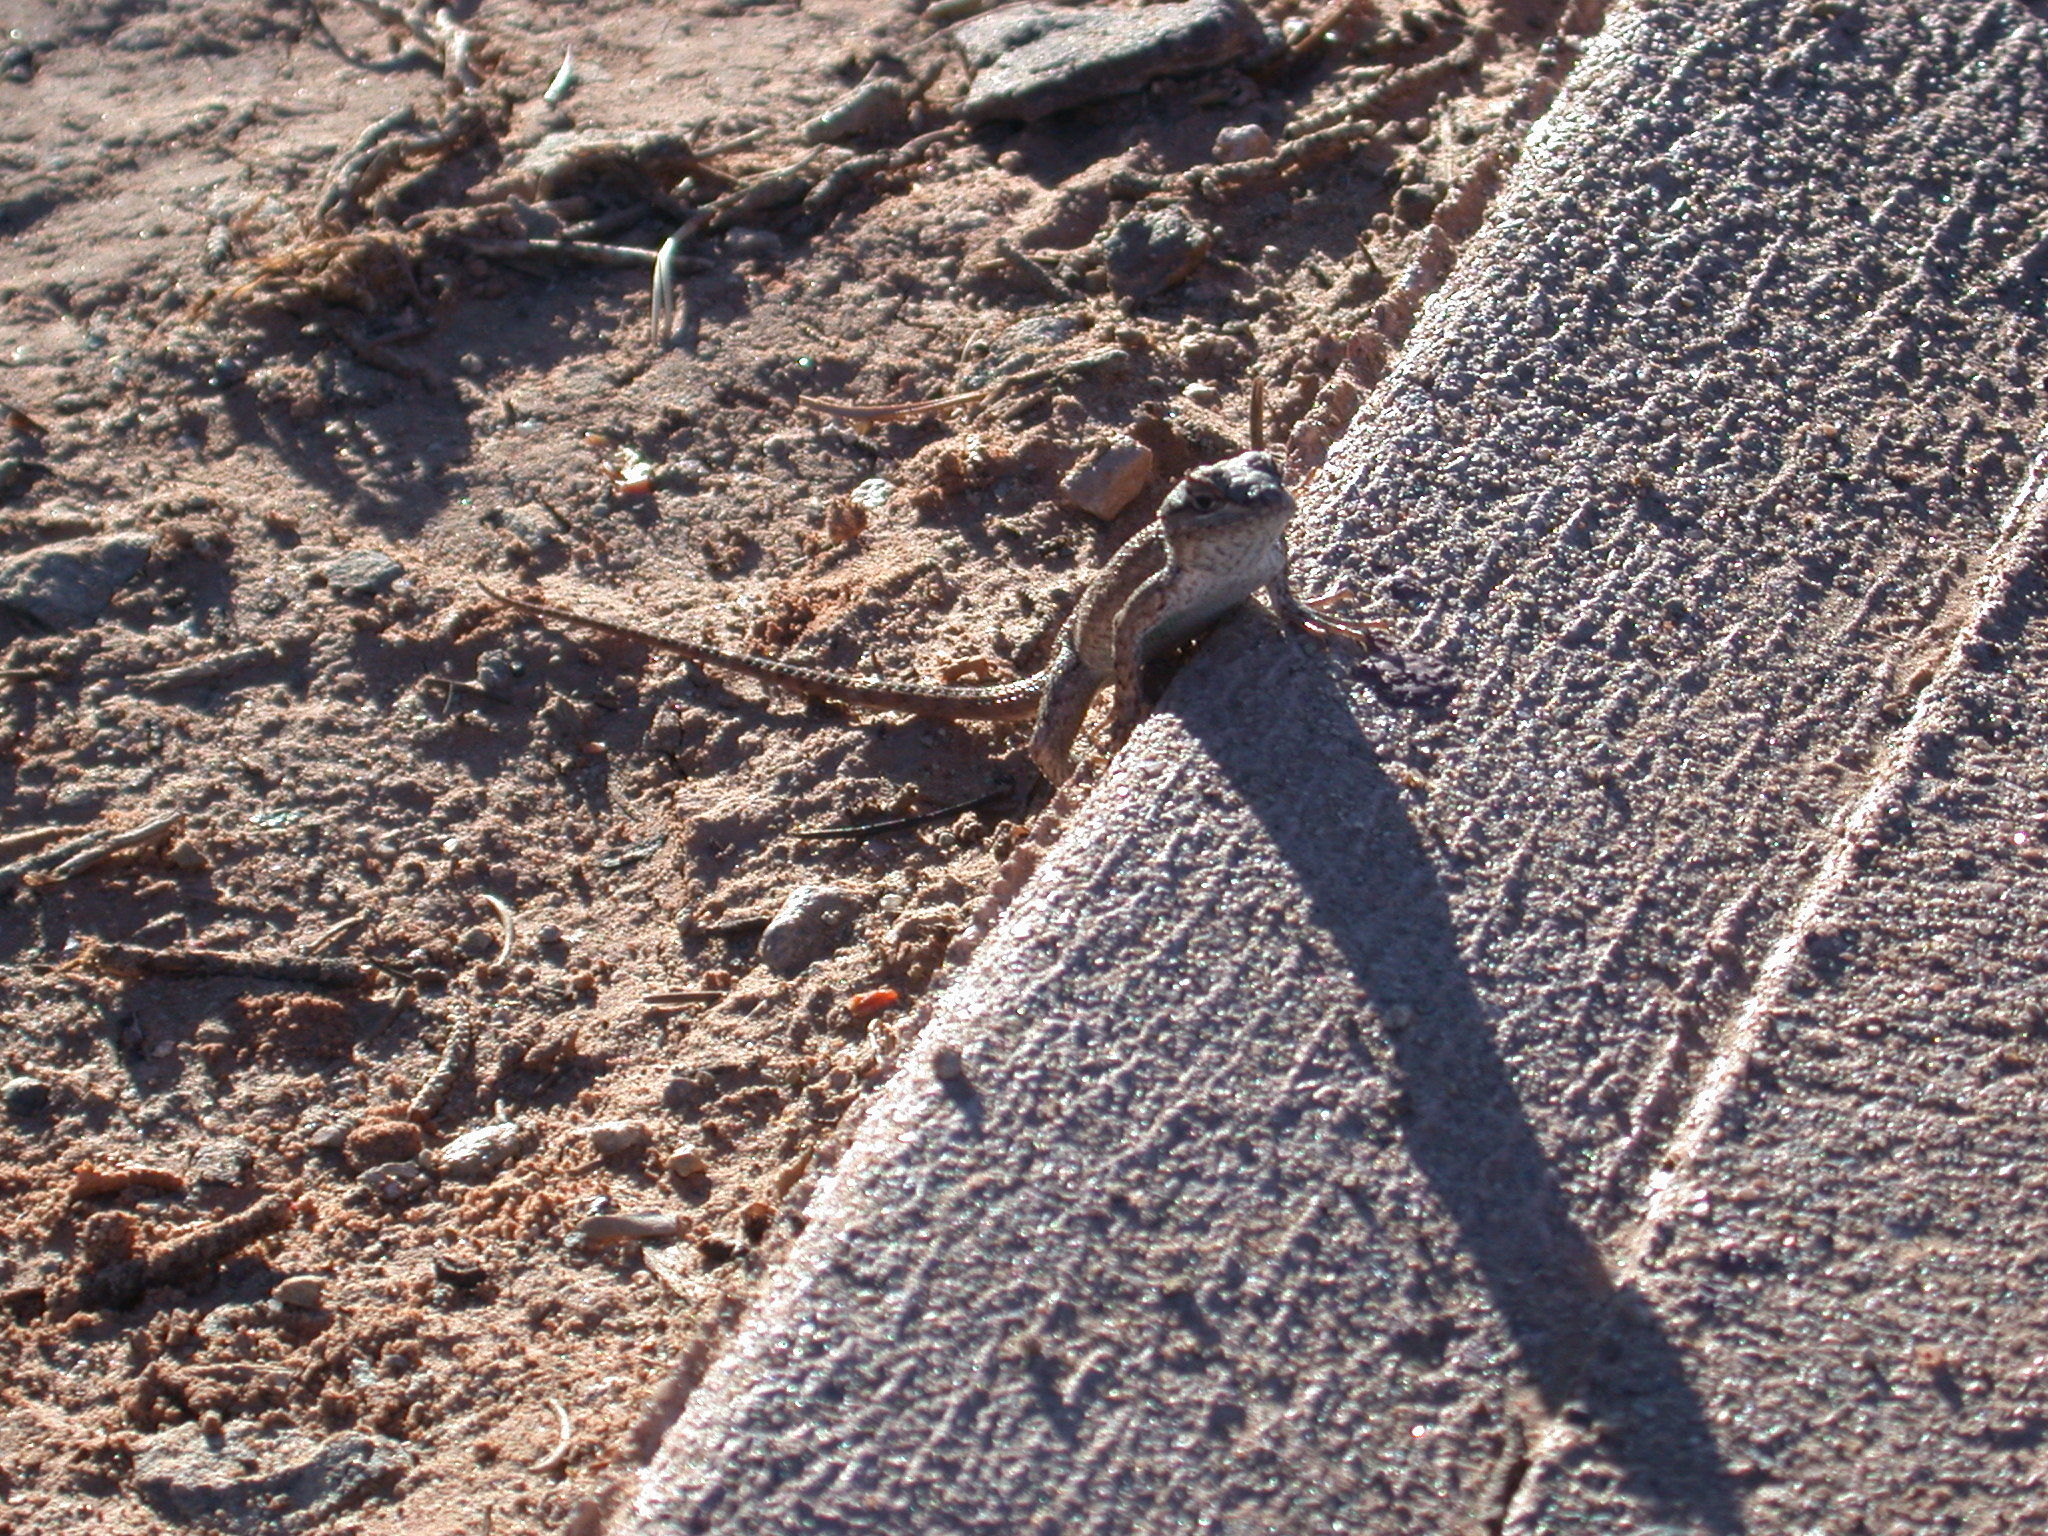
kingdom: Animalia
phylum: Chordata
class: Squamata
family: Phrynosomatidae
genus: Sceloporus
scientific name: Sceloporus tristichus
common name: Plateau fence lizard
